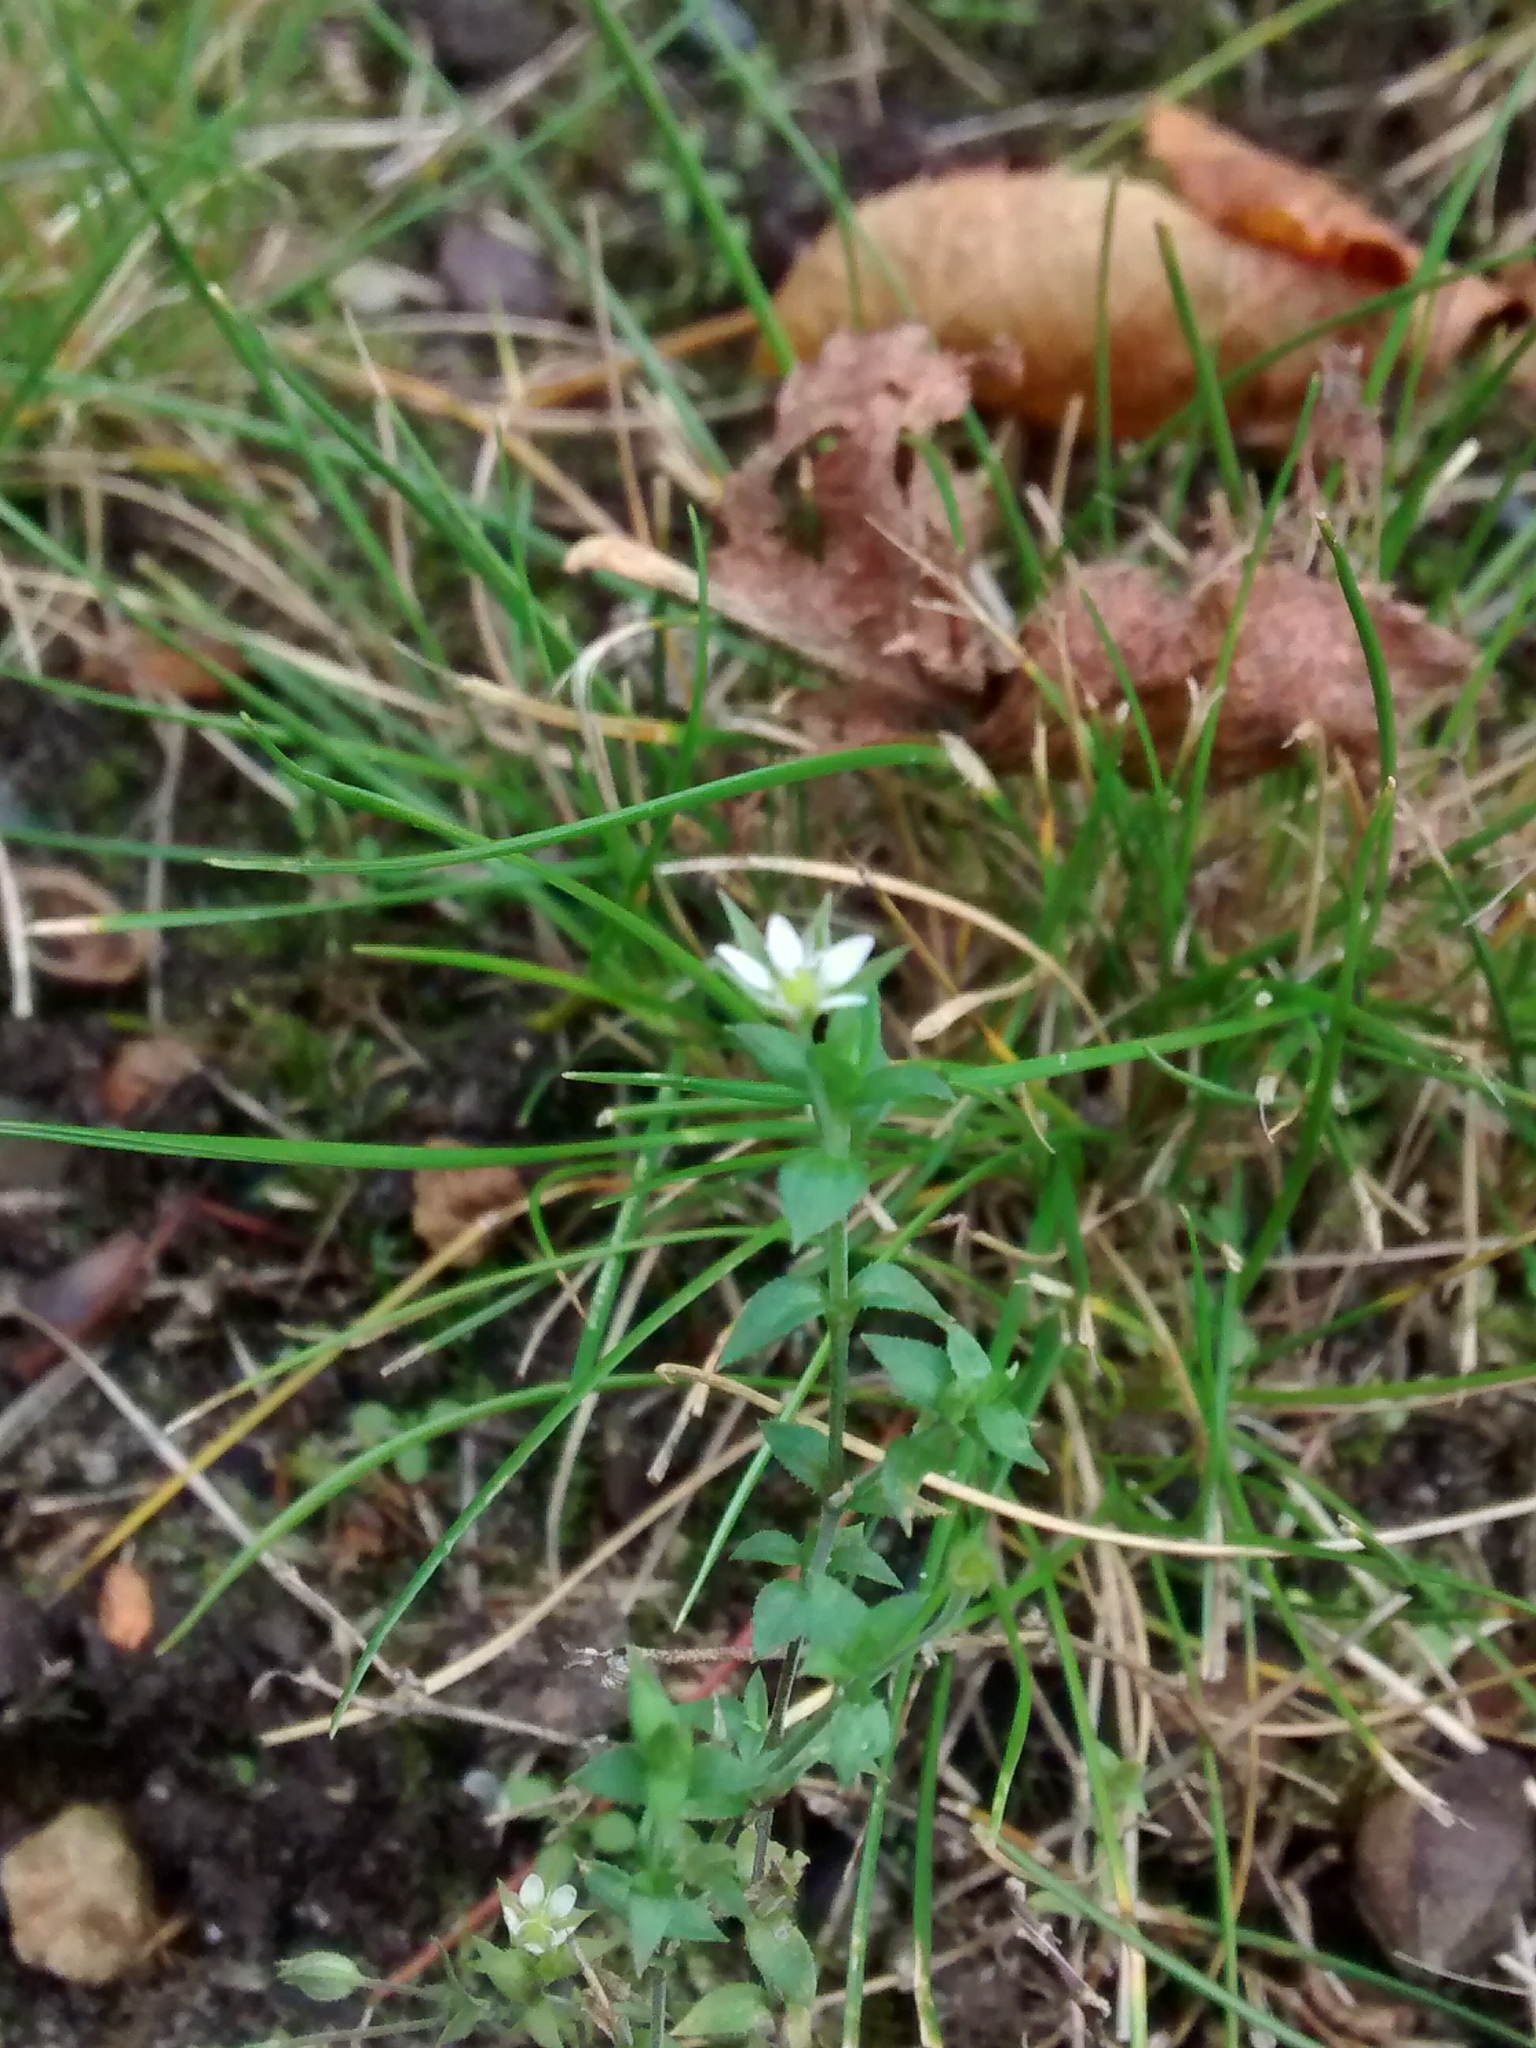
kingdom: Plantae
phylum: Tracheophyta
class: Magnoliopsida
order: Caryophyllales
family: Caryophyllaceae
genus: Arenaria
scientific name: Arenaria serpyllifolia
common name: Thyme-leaved sandwort
